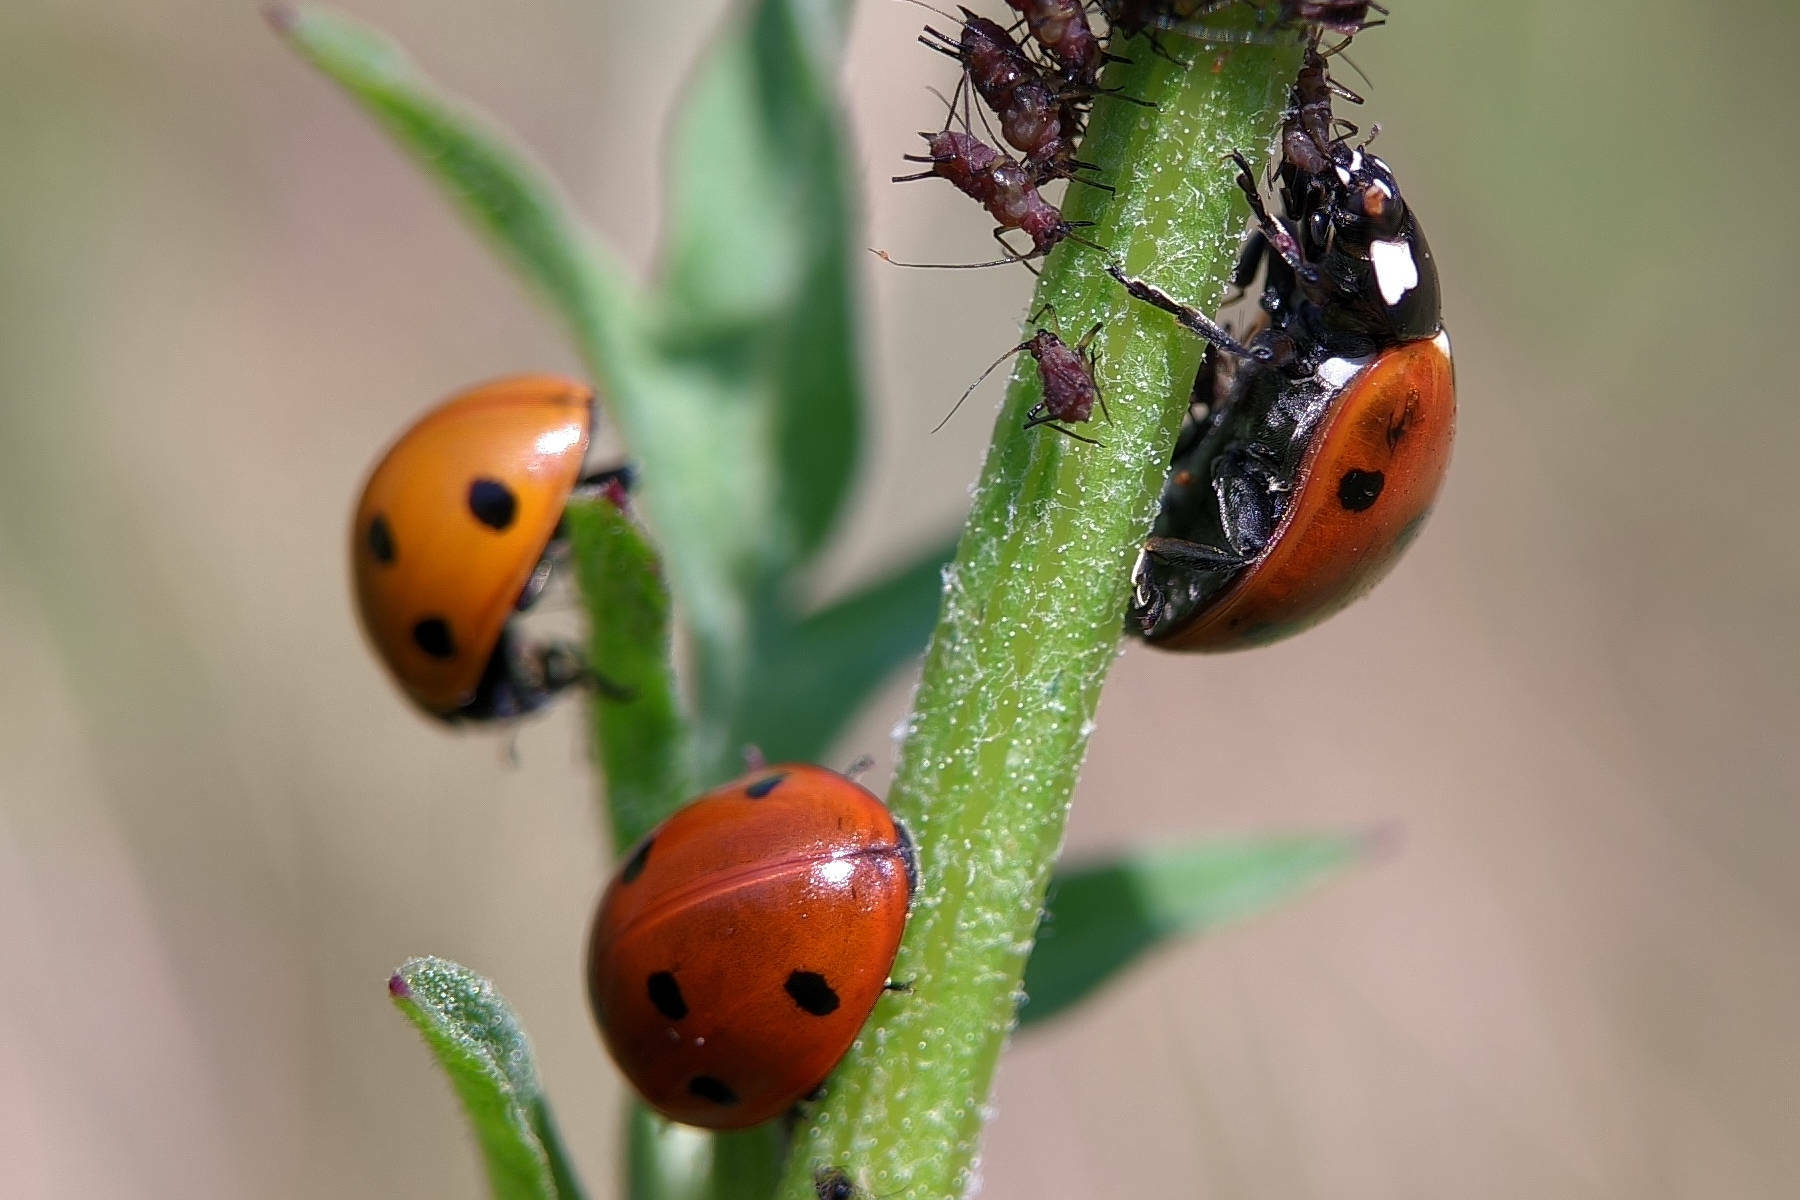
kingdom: Animalia
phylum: Arthropoda
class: Insecta
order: Coleoptera
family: Coccinellidae
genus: Coccinella
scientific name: Coccinella septempunctata
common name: Sevenspotted lady beetle
